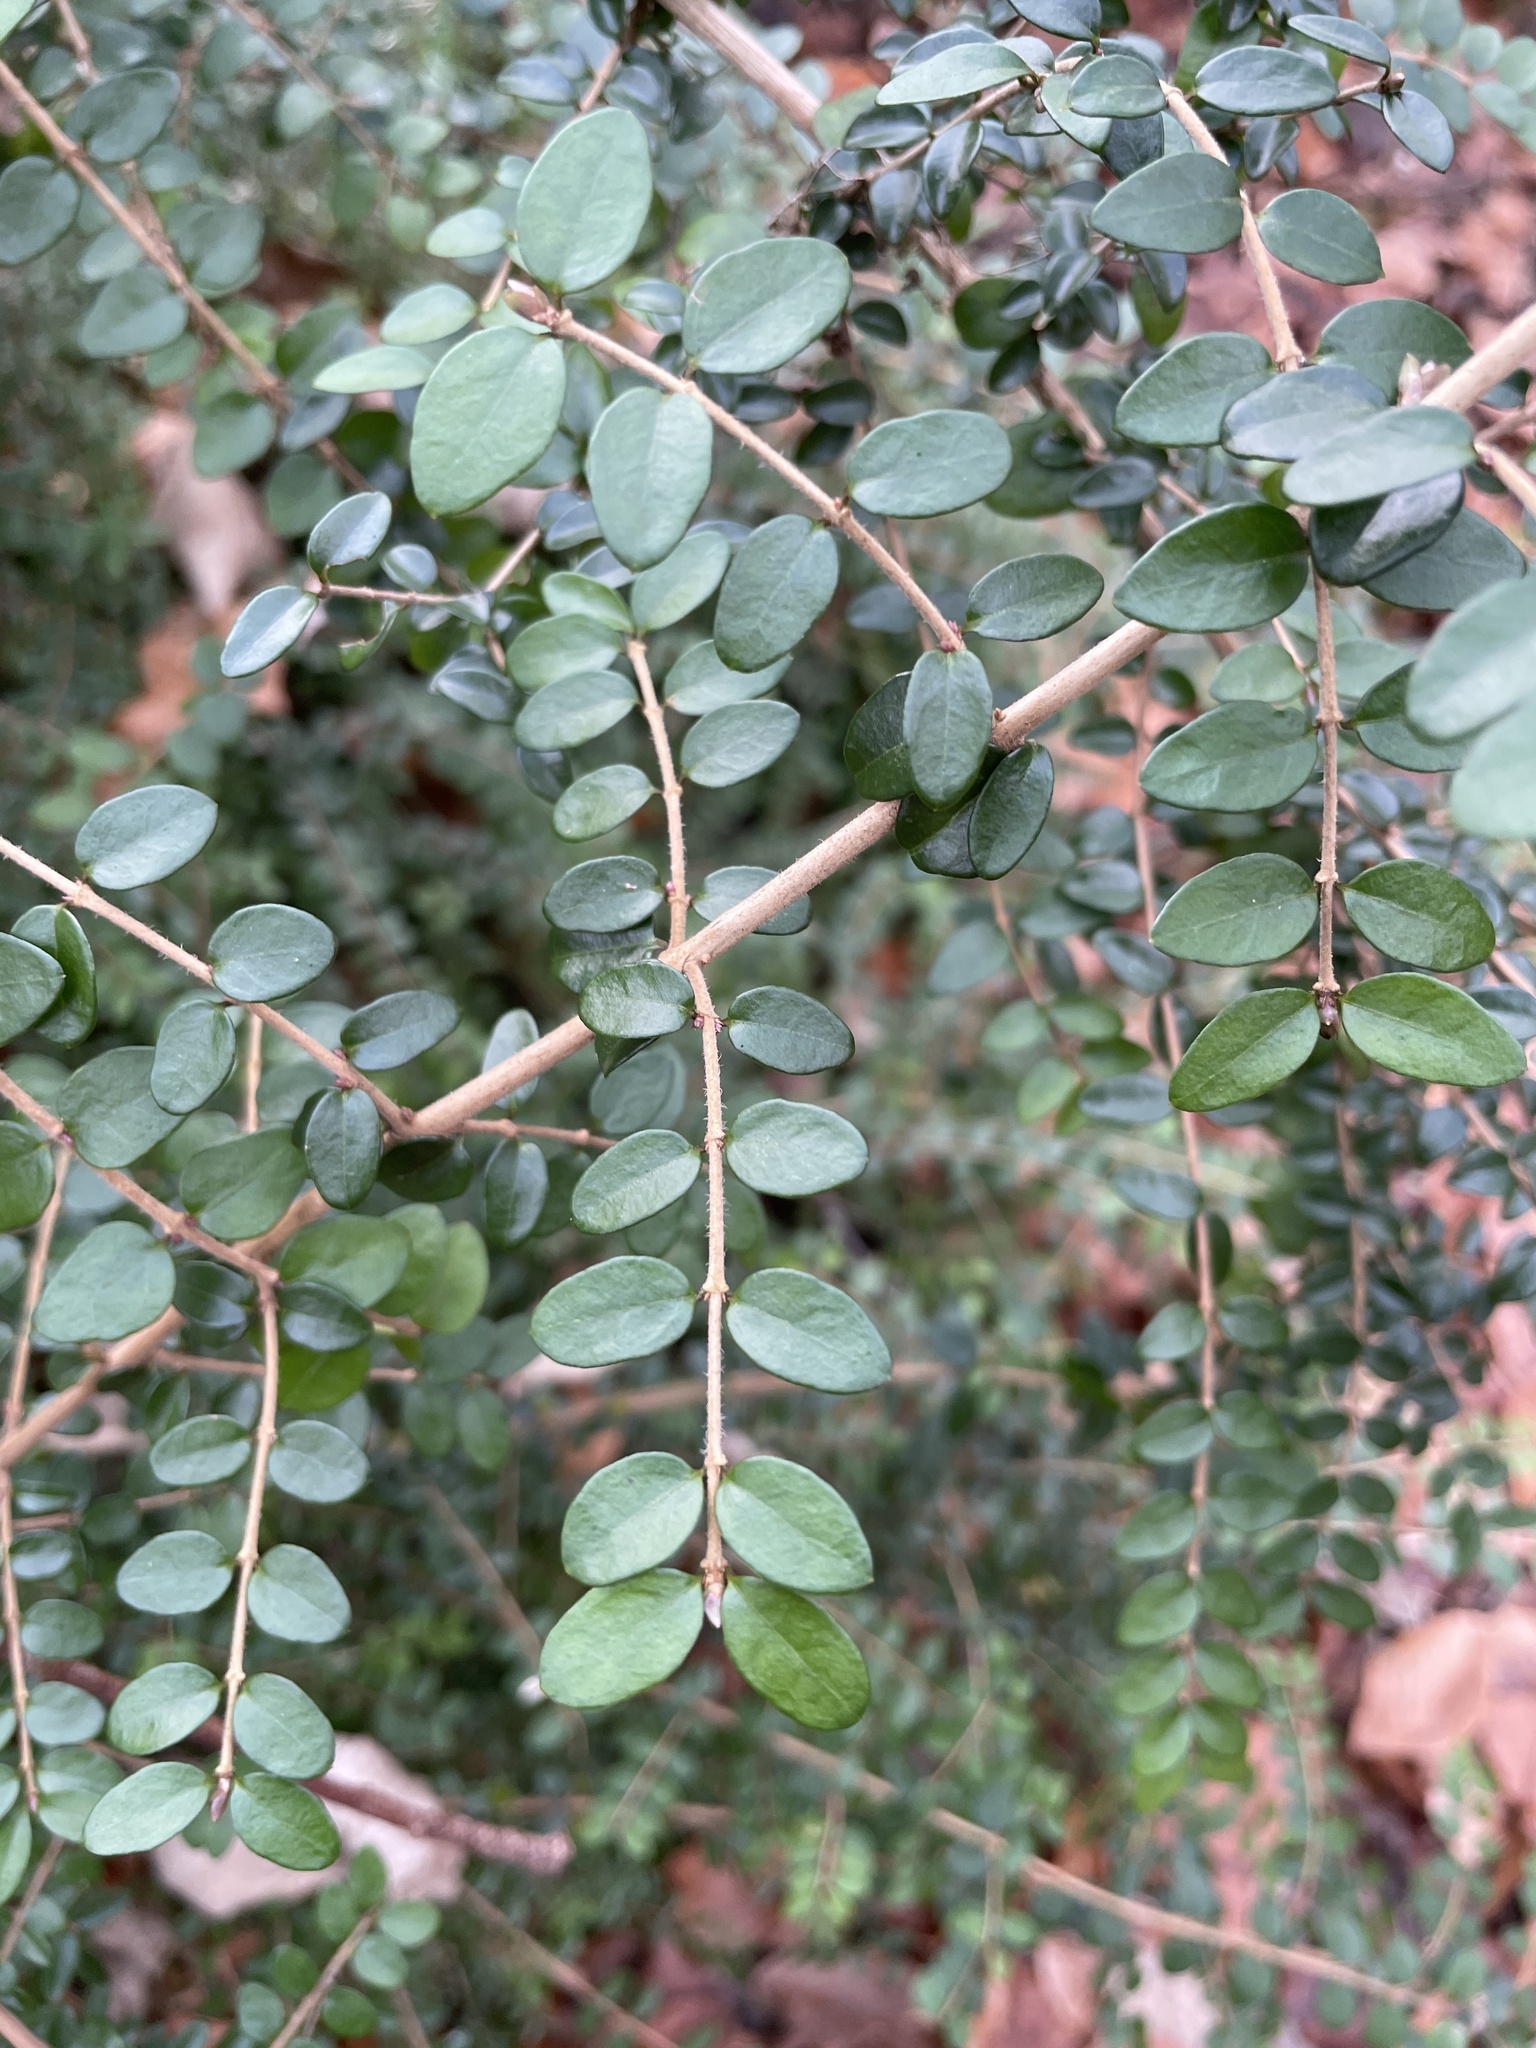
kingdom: Plantae
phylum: Tracheophyta
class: Magnoliopsida
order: Dipsacales
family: Caprifoliaceae
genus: Lonicera
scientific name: Lonicera ligustrina
